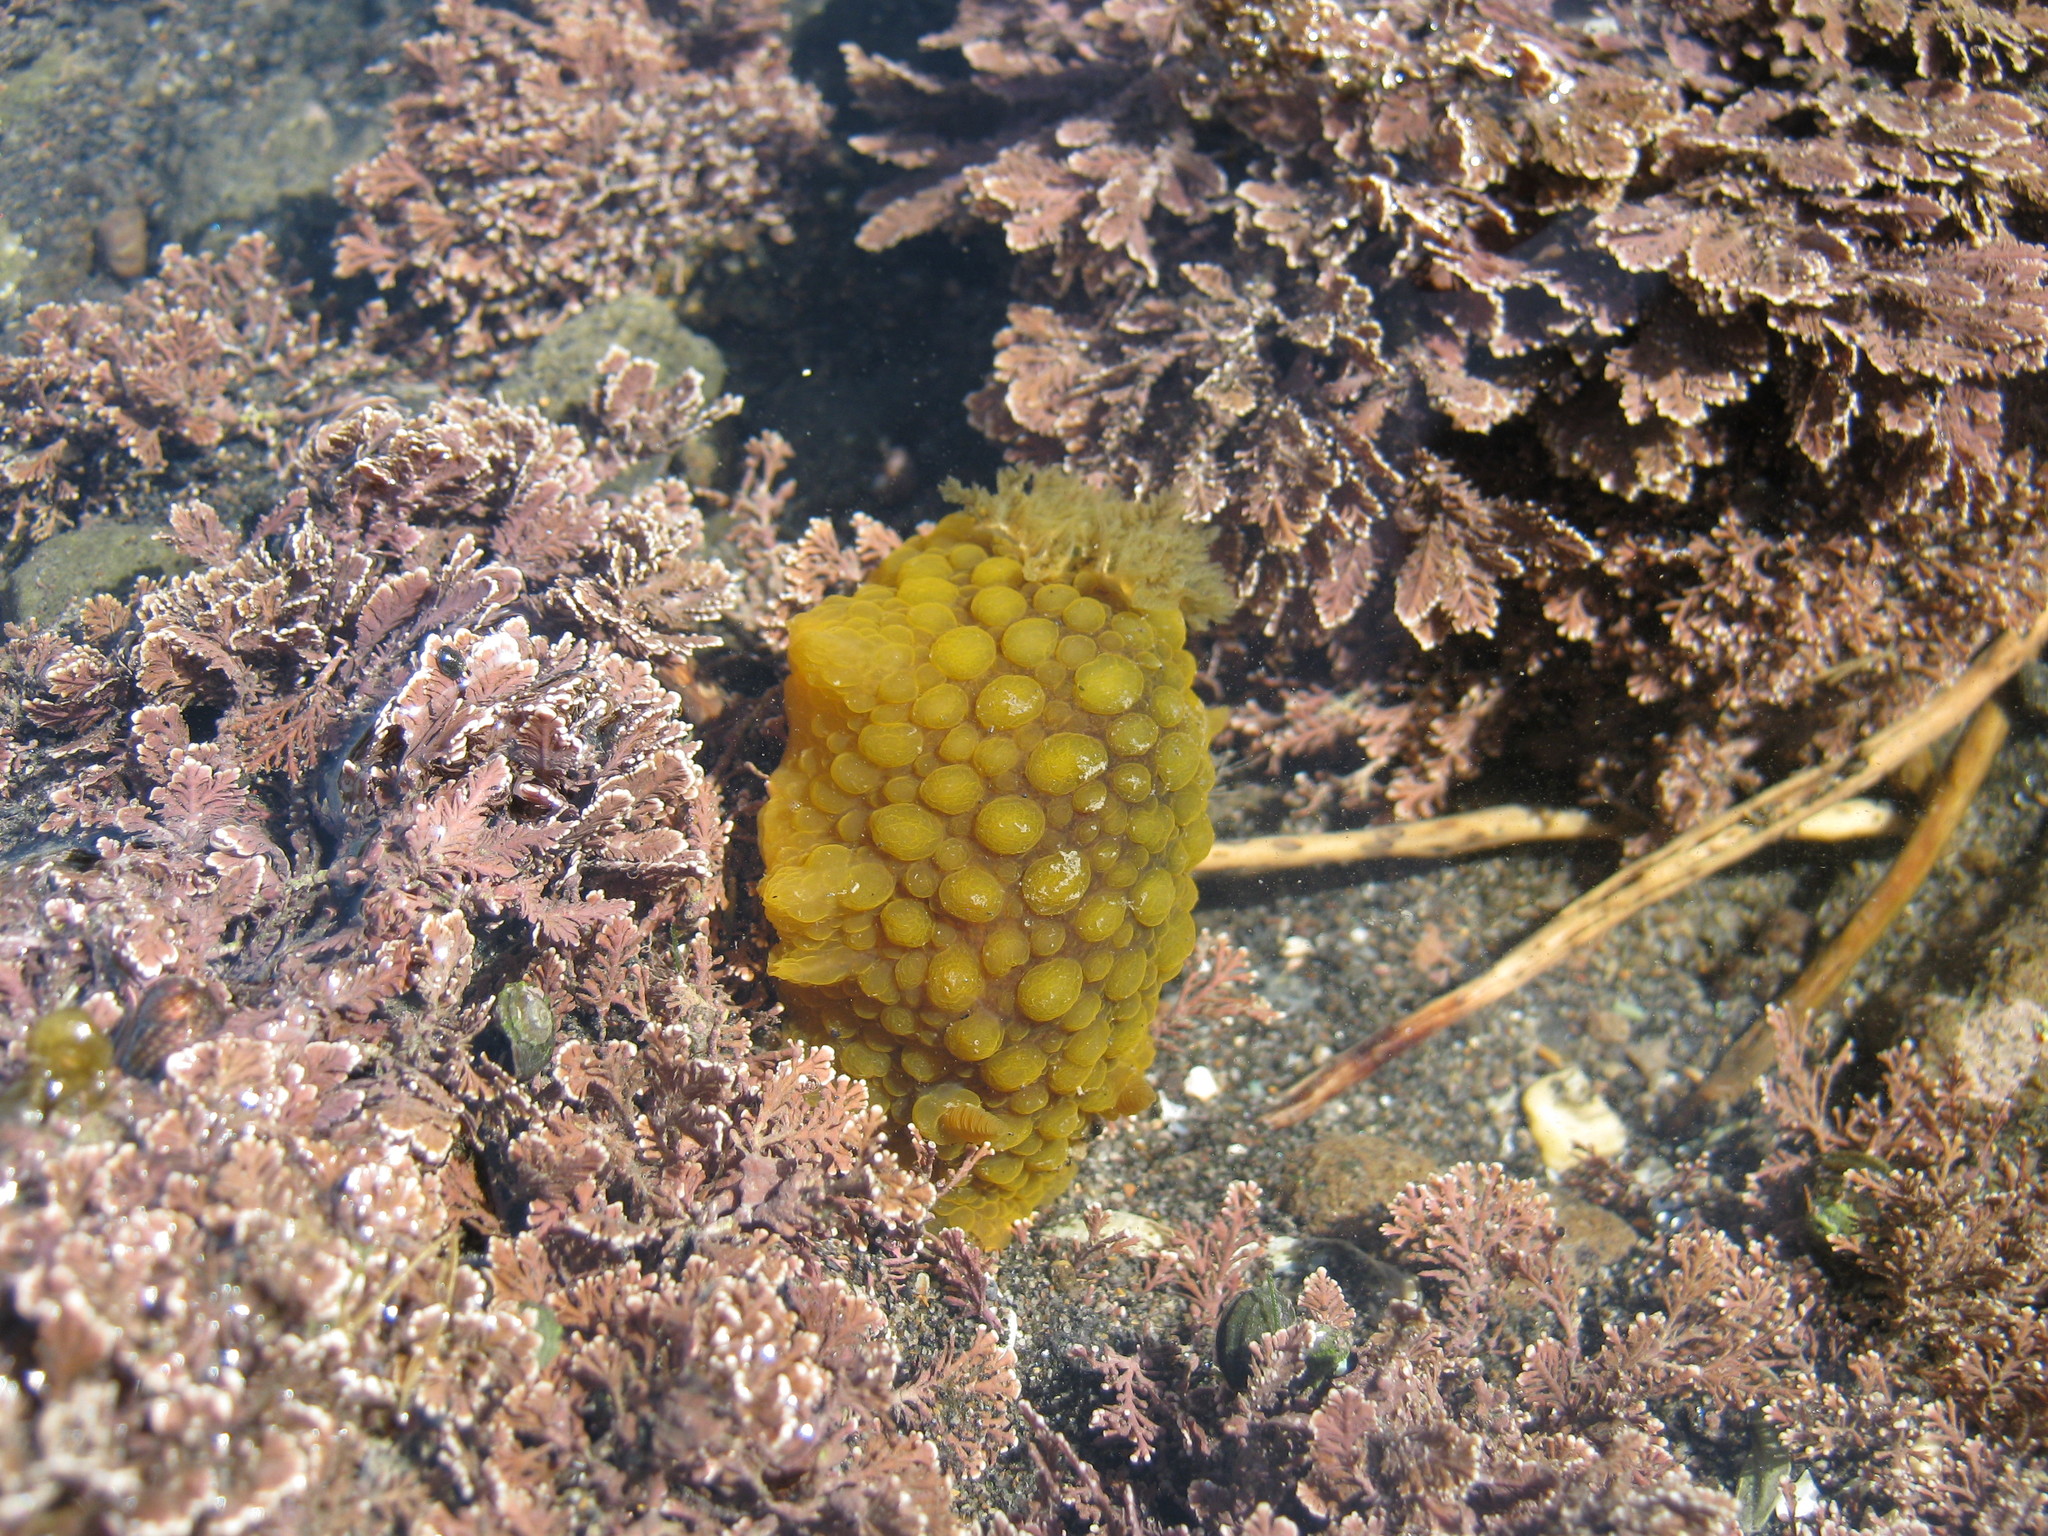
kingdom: Animalia
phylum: Mollusca
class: Gastropoda
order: Nudibranchia
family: Dorididae
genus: Doris
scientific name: Doris wellingtonensis
